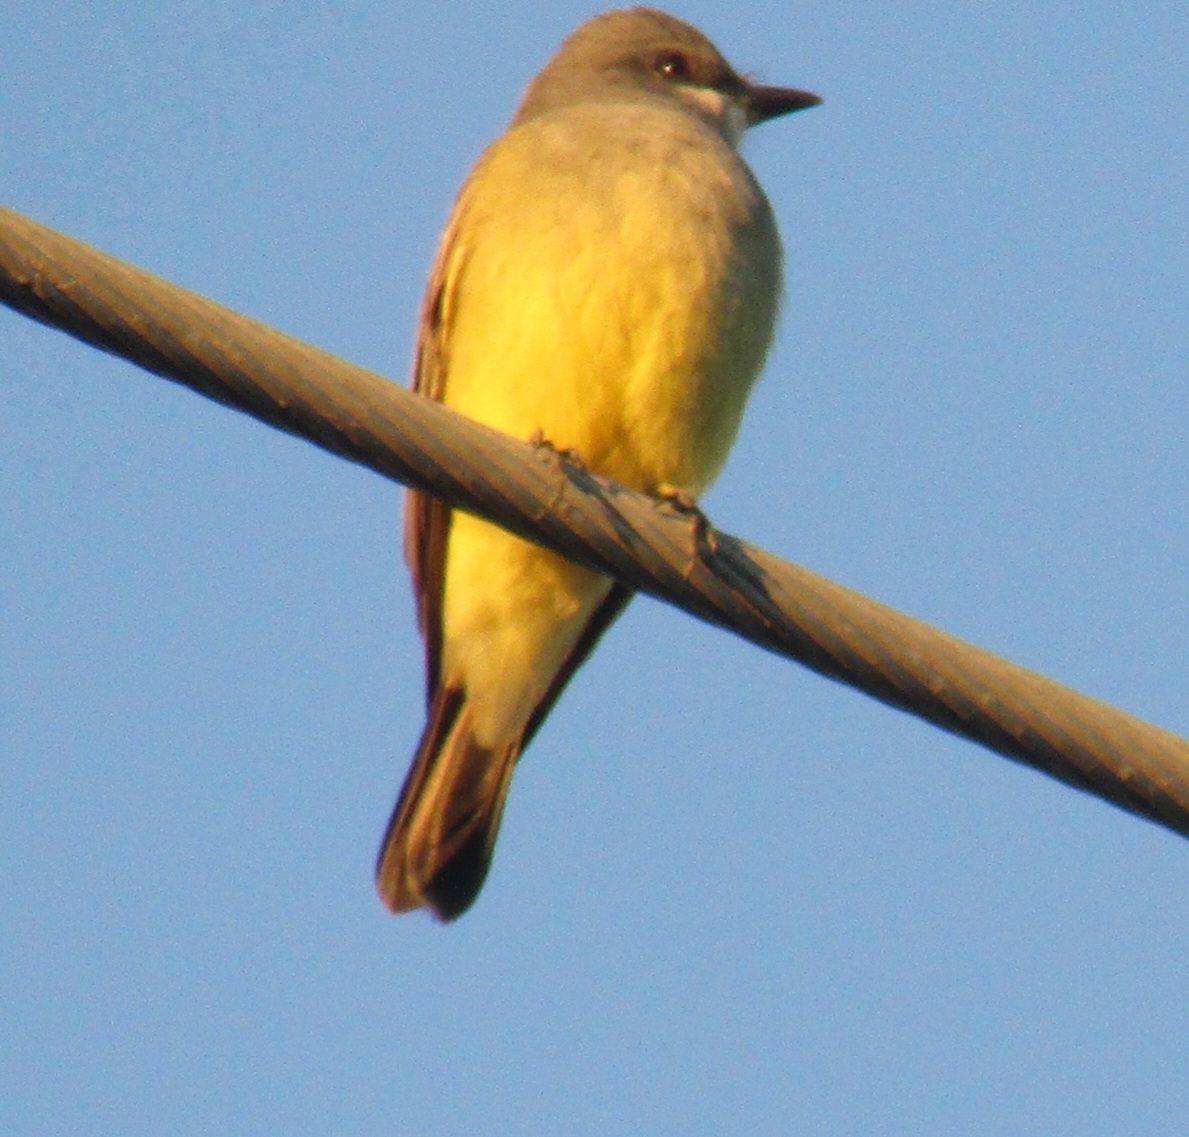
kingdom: Animalia
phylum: Chordata
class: Aves
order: Passeriformes
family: Tyrannidae
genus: Tyrannus
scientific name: Tyrannus vociferans
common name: Cassin's kingbird
